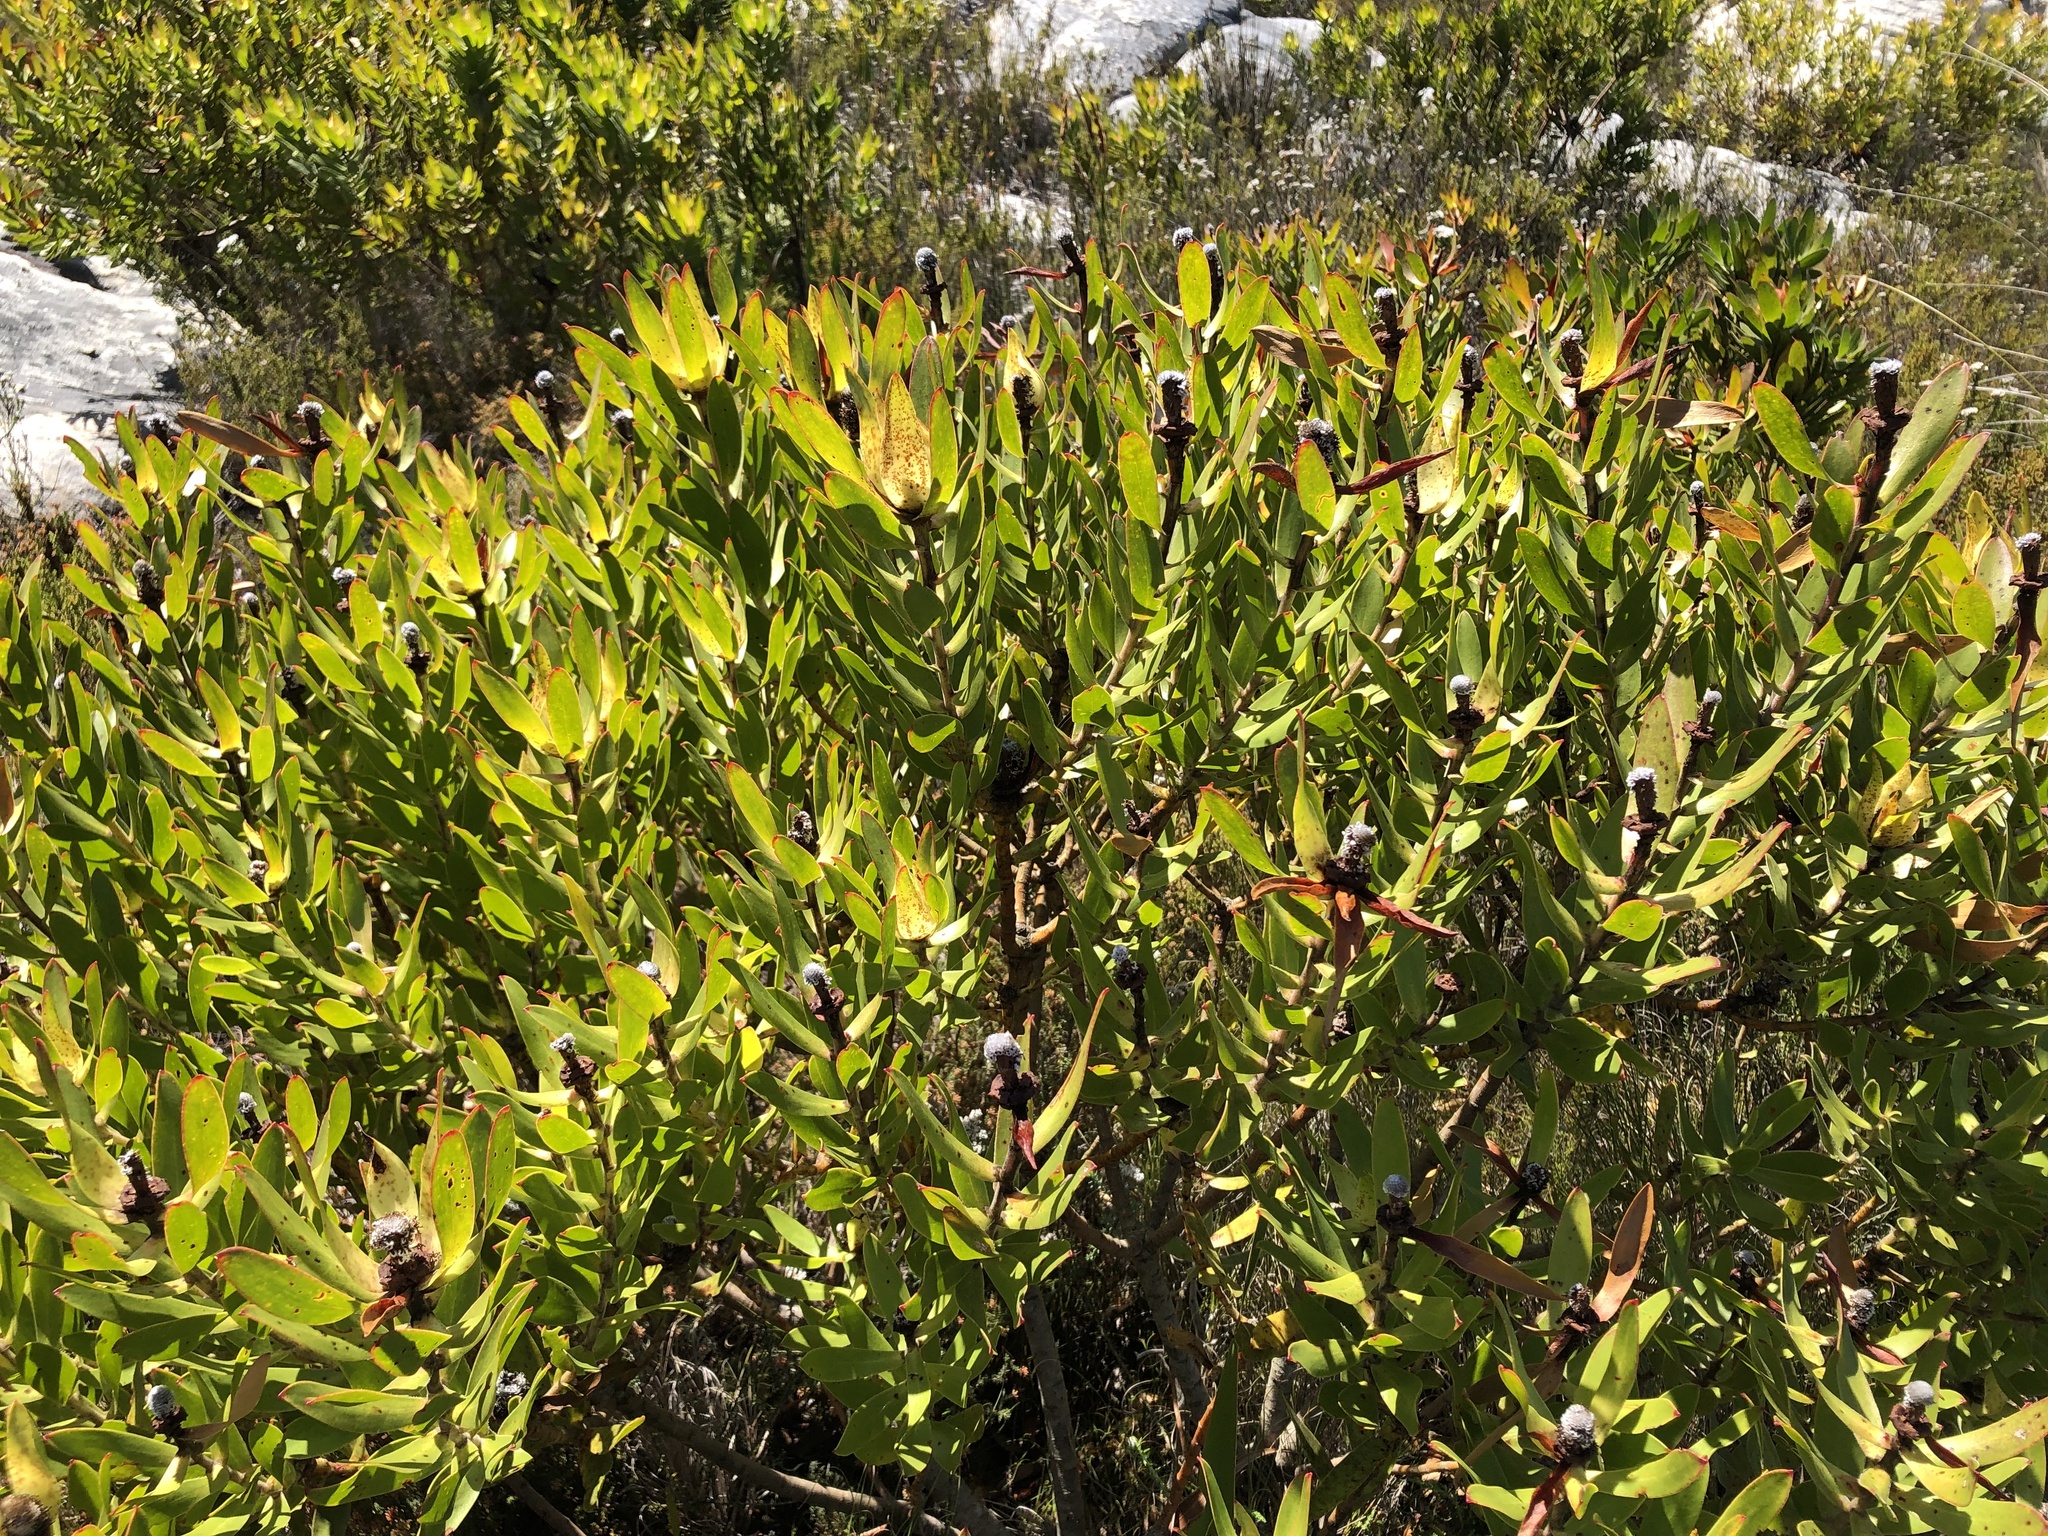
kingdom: Plantae
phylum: Tracheophyta
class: Magnoliopsida
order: Proteales
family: Proteaceae
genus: Leucadendron
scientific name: Leucadendron
